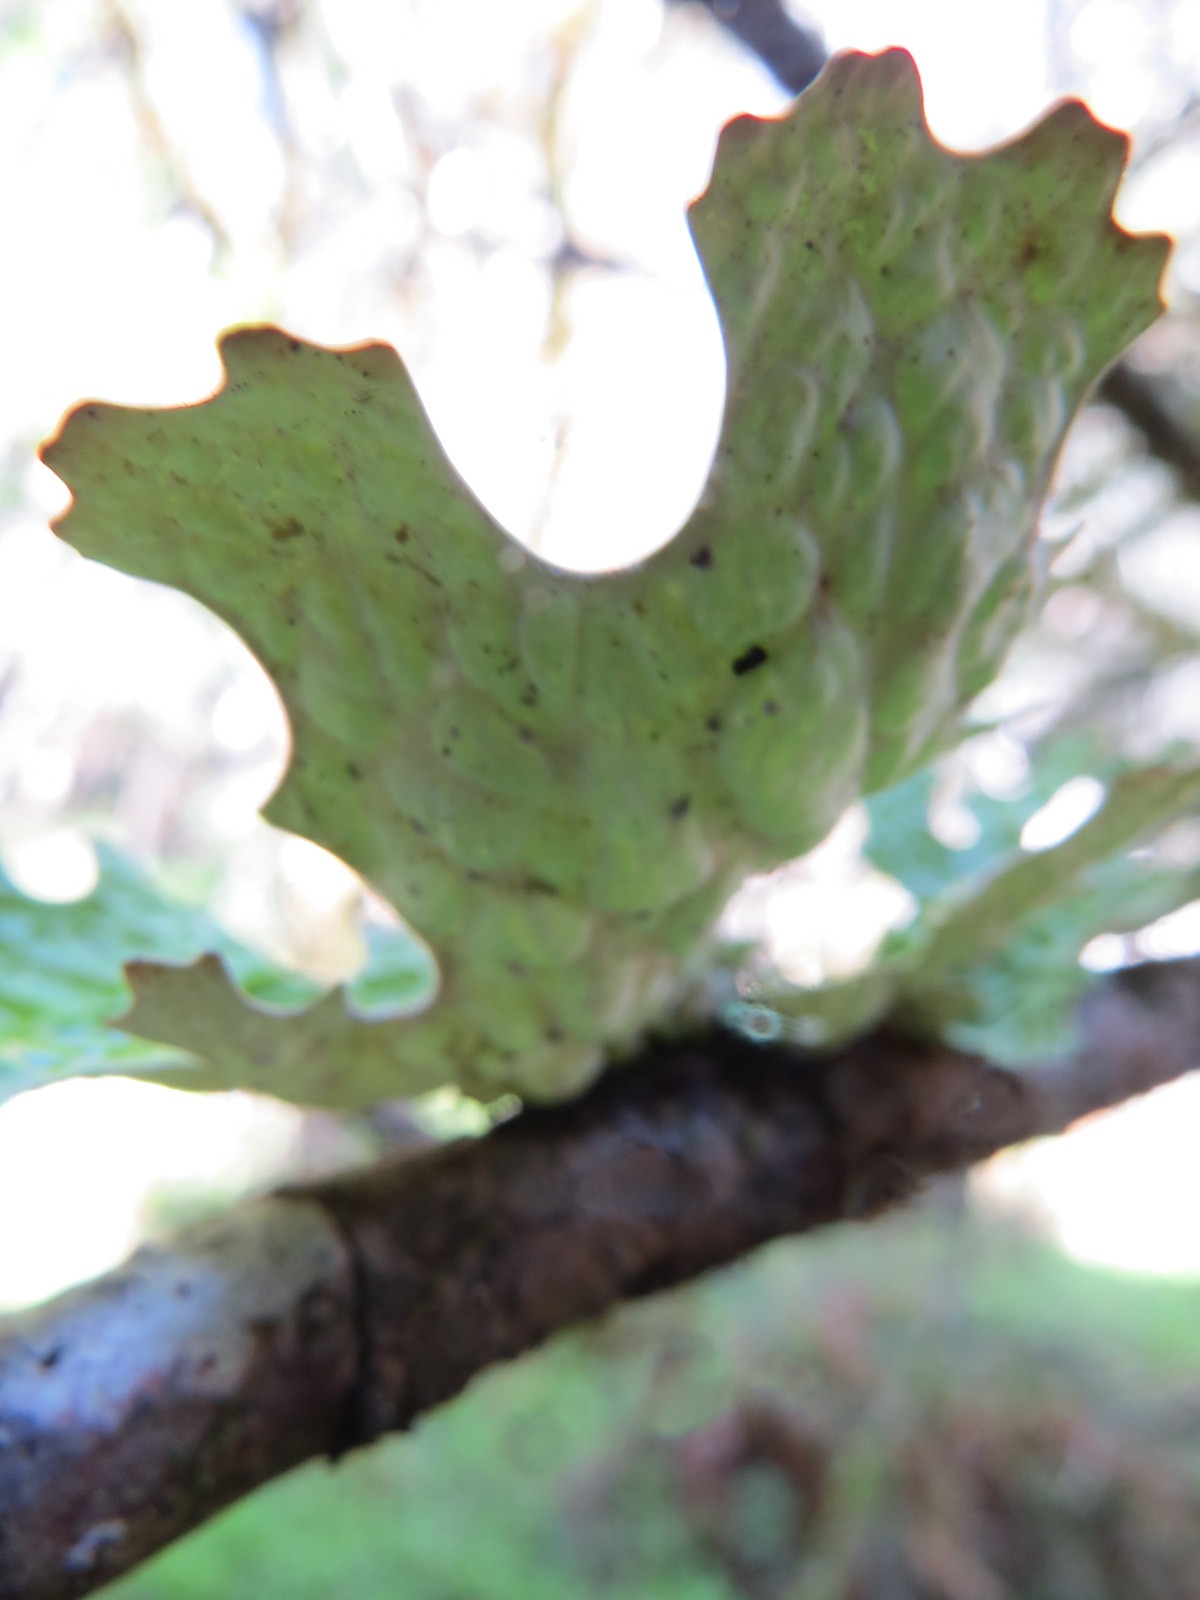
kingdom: Fungi
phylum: Ascomycota
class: Lecanoromycetes
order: Peltigerales
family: Lobariaceae
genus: Lobaria
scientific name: Lobaria pulmonaria
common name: Lungwort
